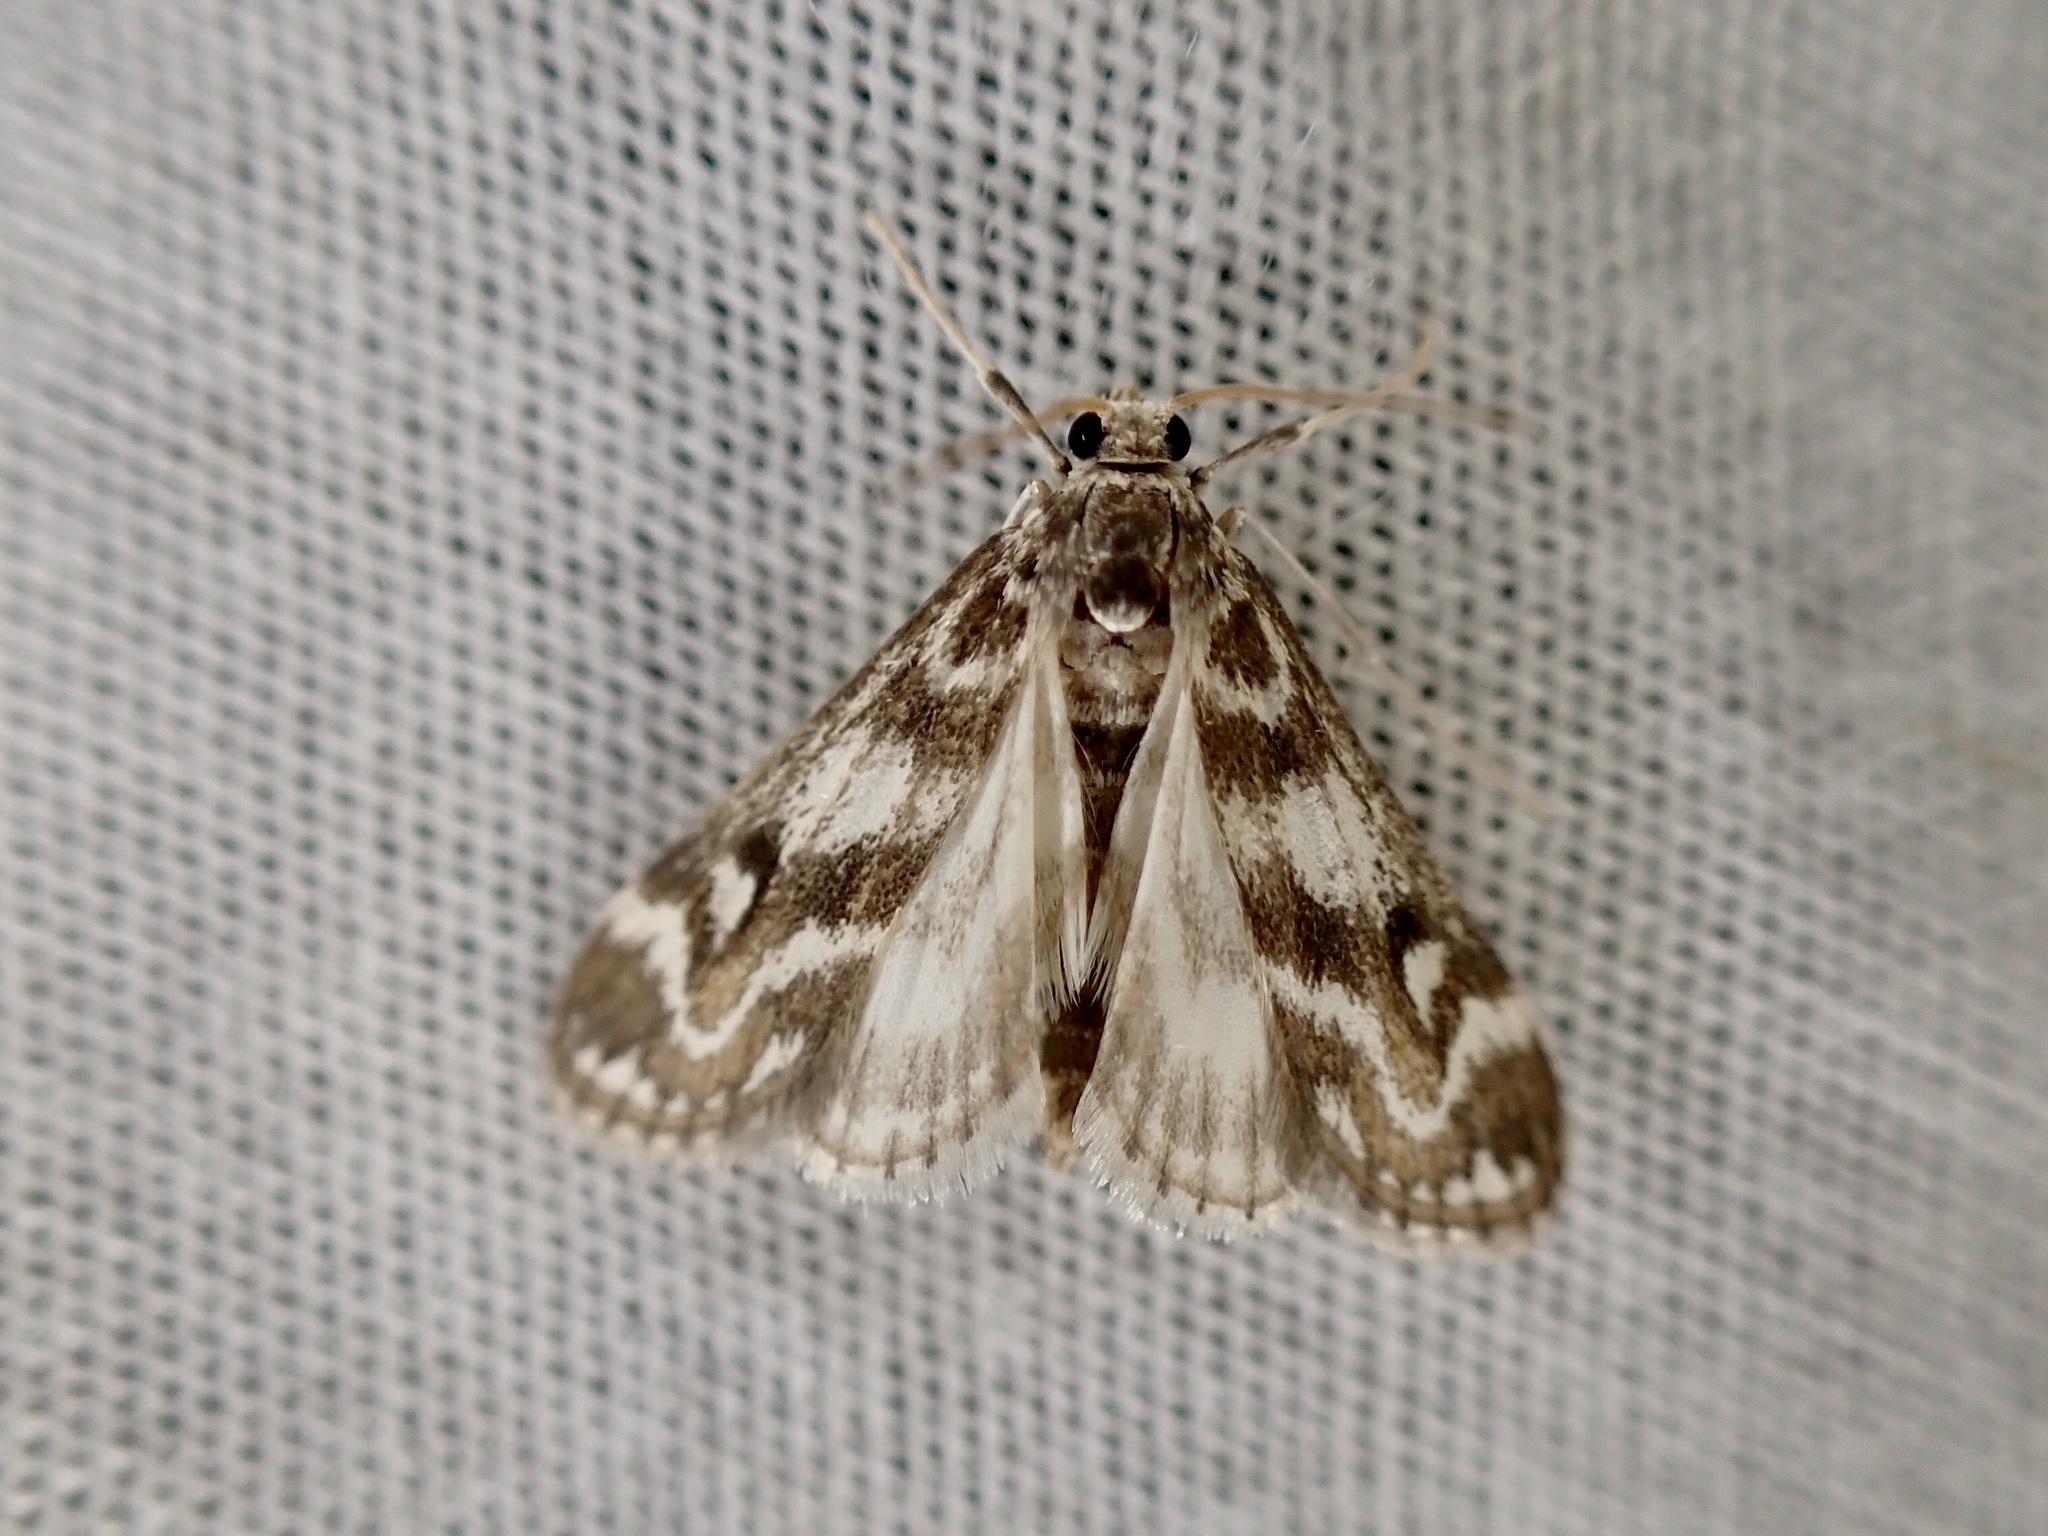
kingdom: Animalia
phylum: Arthropoda
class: Insecta
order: Lepidoptera
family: Crambidae
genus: Hygraula
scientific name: Hygraula nitens
